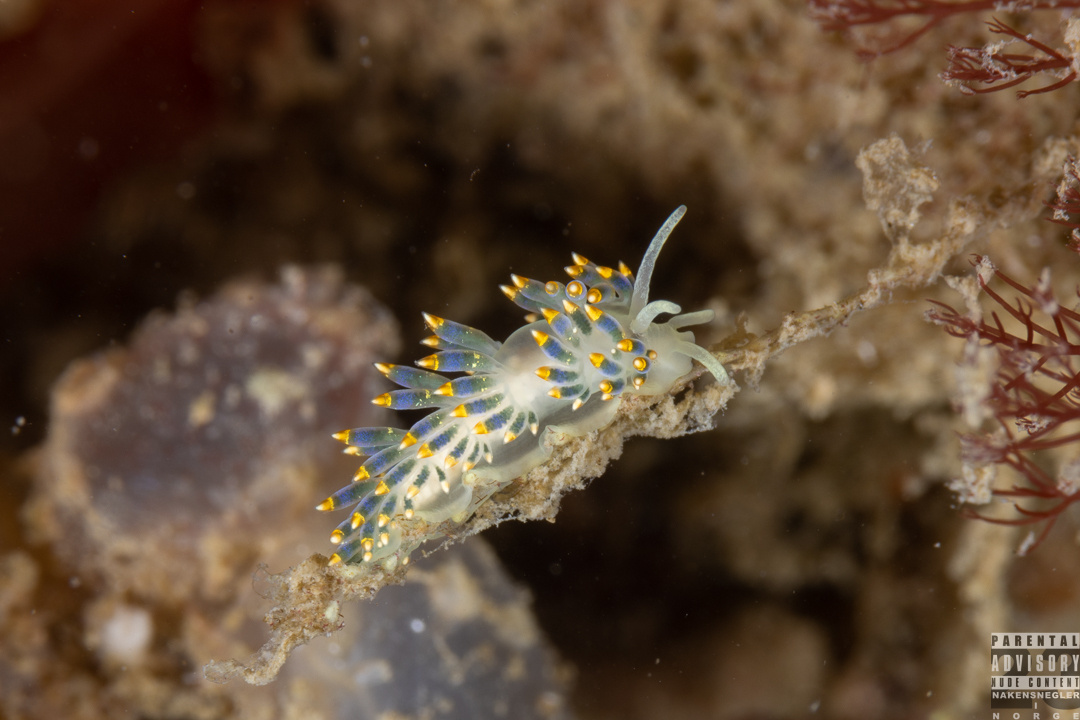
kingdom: Animalia
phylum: Mollusca
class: Gastropoda
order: Nudibranchia
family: Trinchesiidae
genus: Trinchesia
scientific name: Trinchesia cuanensis
